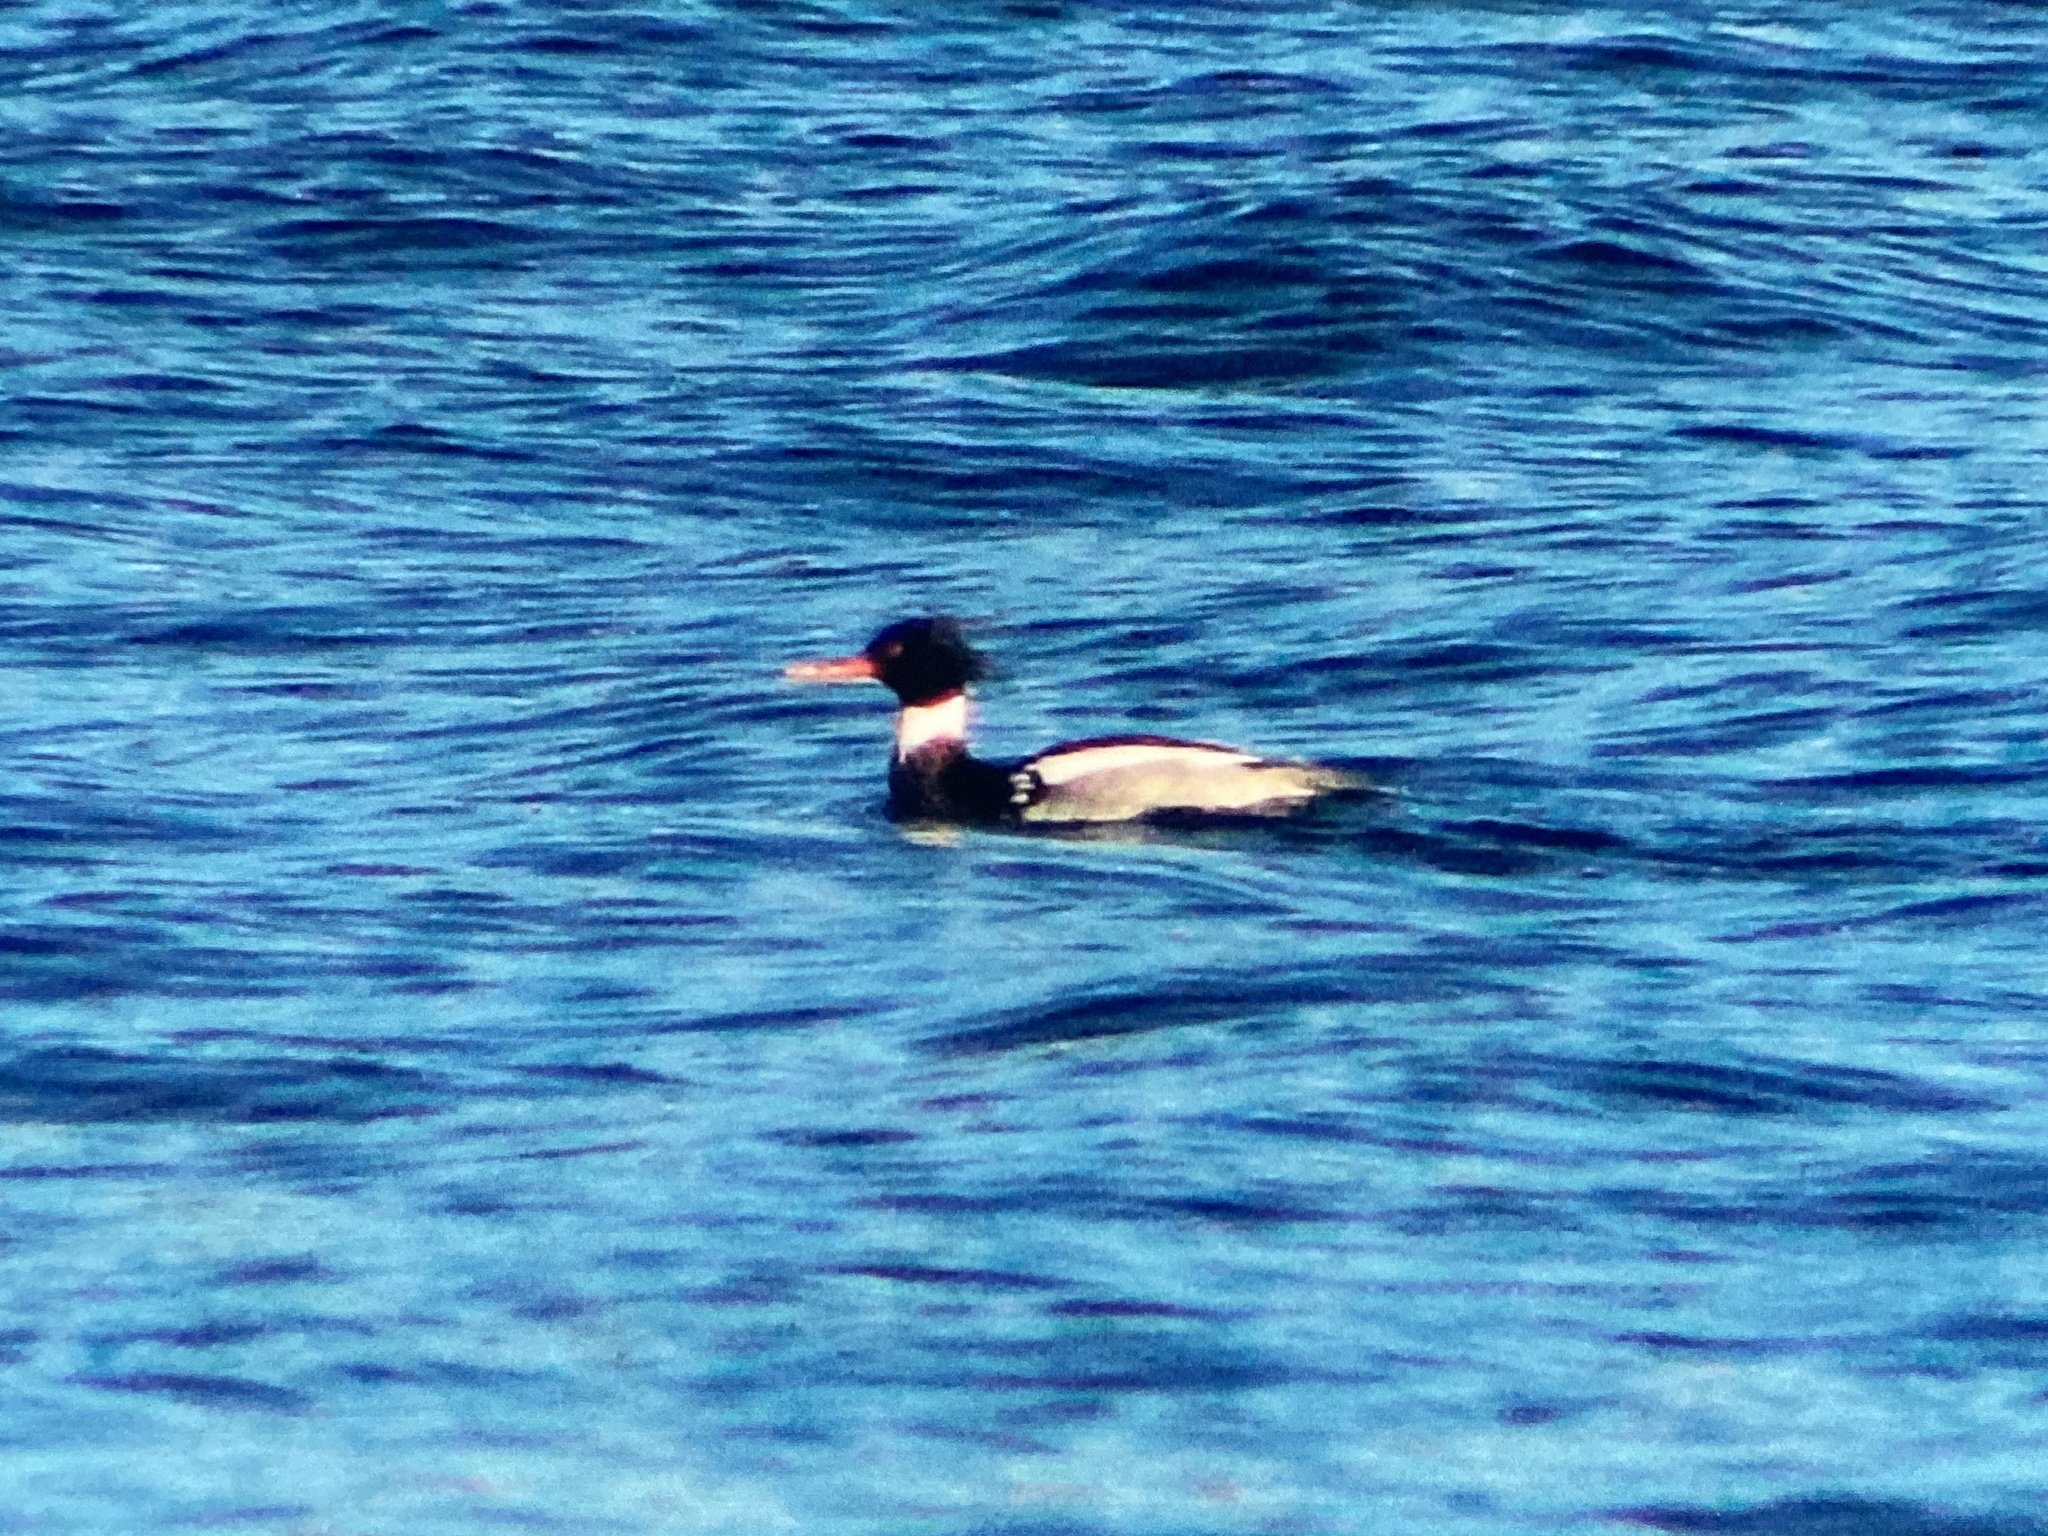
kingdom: Animalia
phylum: Chordata
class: Aves
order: Anseriformes
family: Anatidae
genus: Mergus
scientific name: Mergus serrator
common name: Red-breasted merganser
